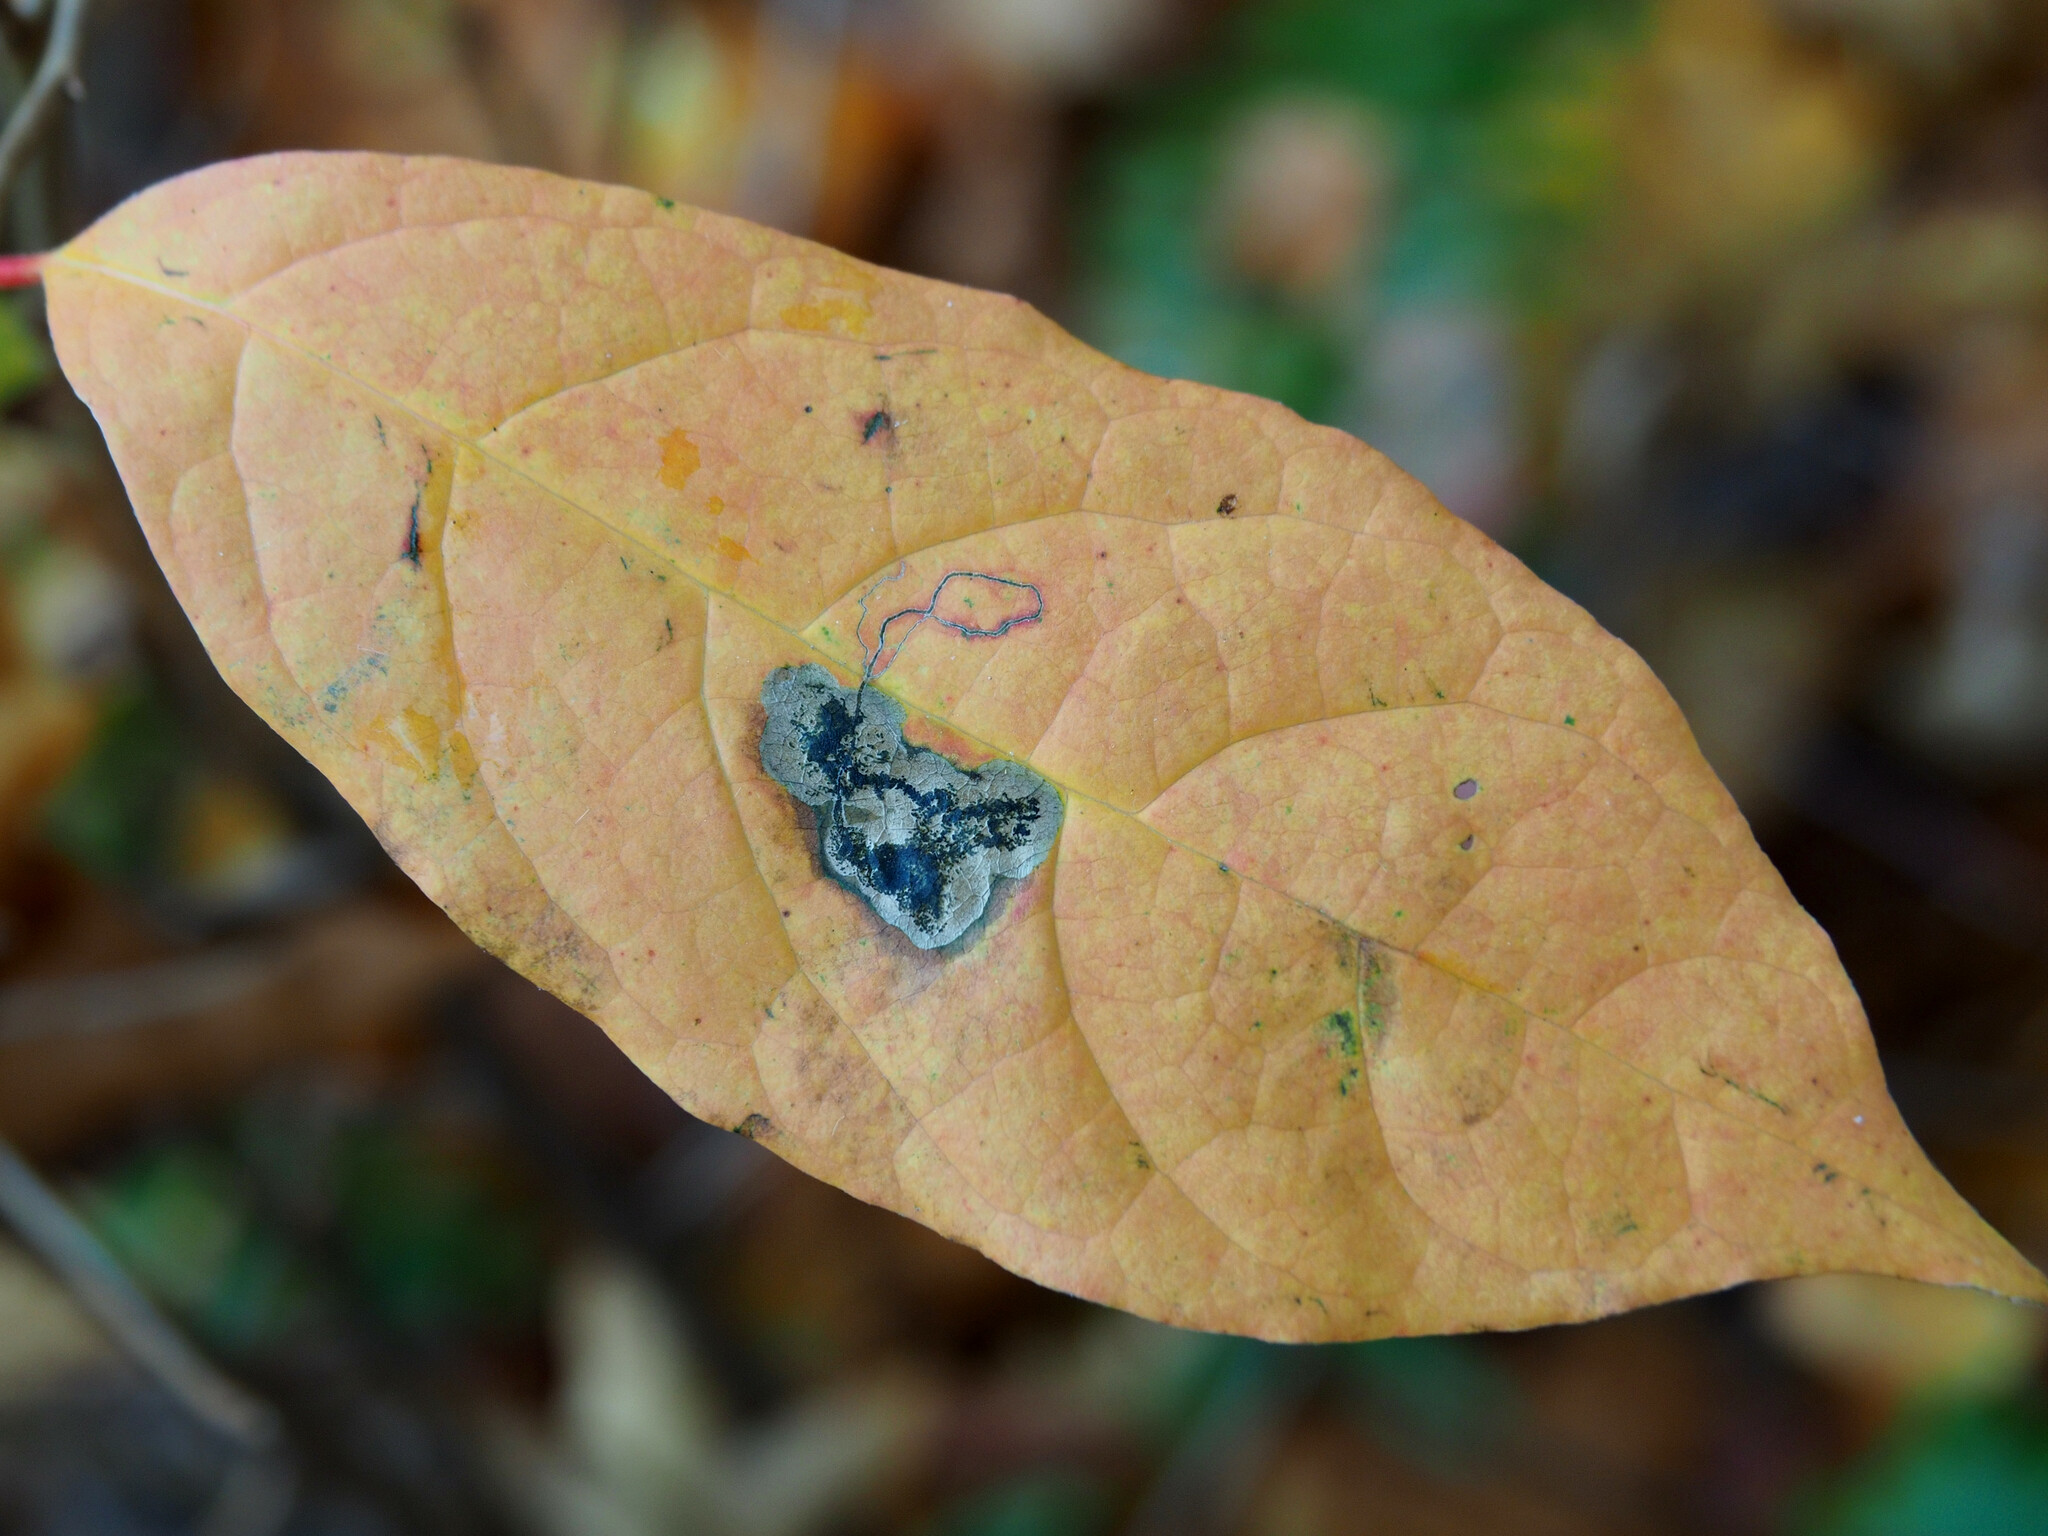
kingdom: Animalia
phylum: Arthropoda
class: Insecta
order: Lepidoptera
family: Nepticulidae
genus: Ectoedemia
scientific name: Ectoedemia nyssaefoliella
